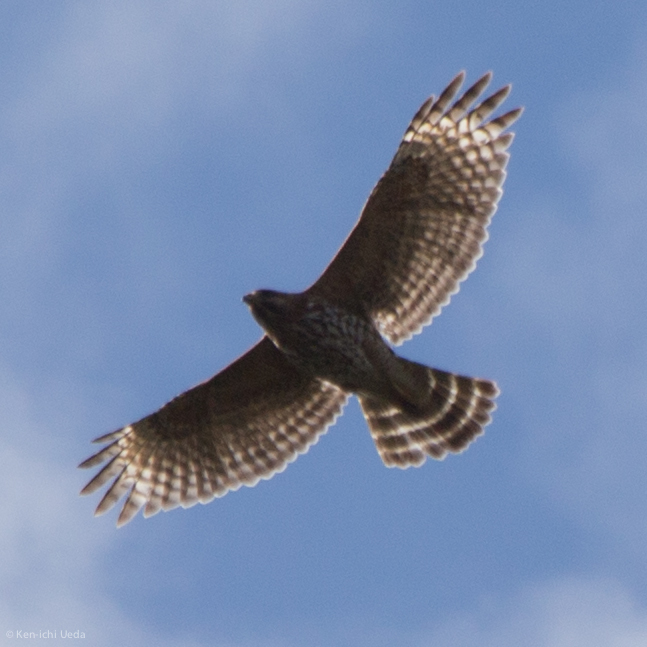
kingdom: Animalia
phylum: Chordata
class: Aves
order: Accipitriformes
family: Accipitridae
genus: Buteo
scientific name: Buteo lineatus
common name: Red-shouldered hawk
